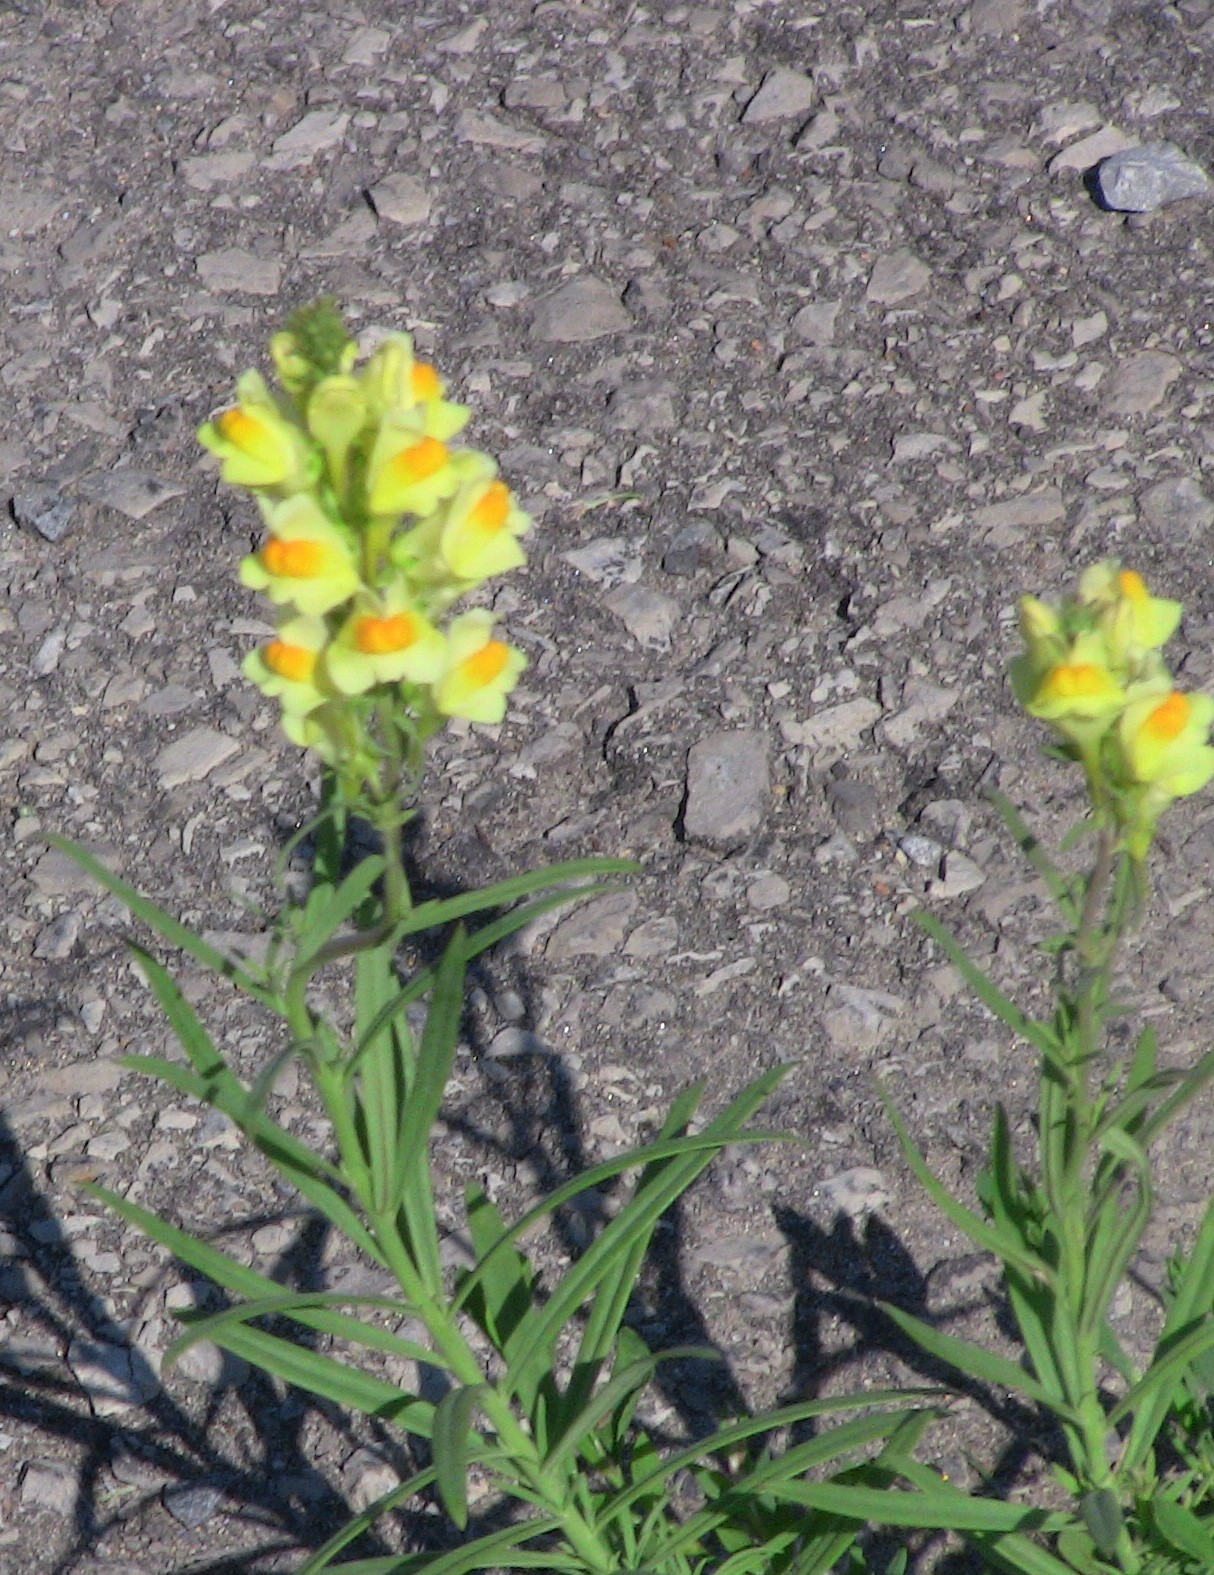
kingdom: Plantae
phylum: Tracheophyta
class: Magnoliopsida
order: Lamiales
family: Plantaginaceae
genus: Linaria
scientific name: Linaria vulgaris
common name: Butter and eggs
